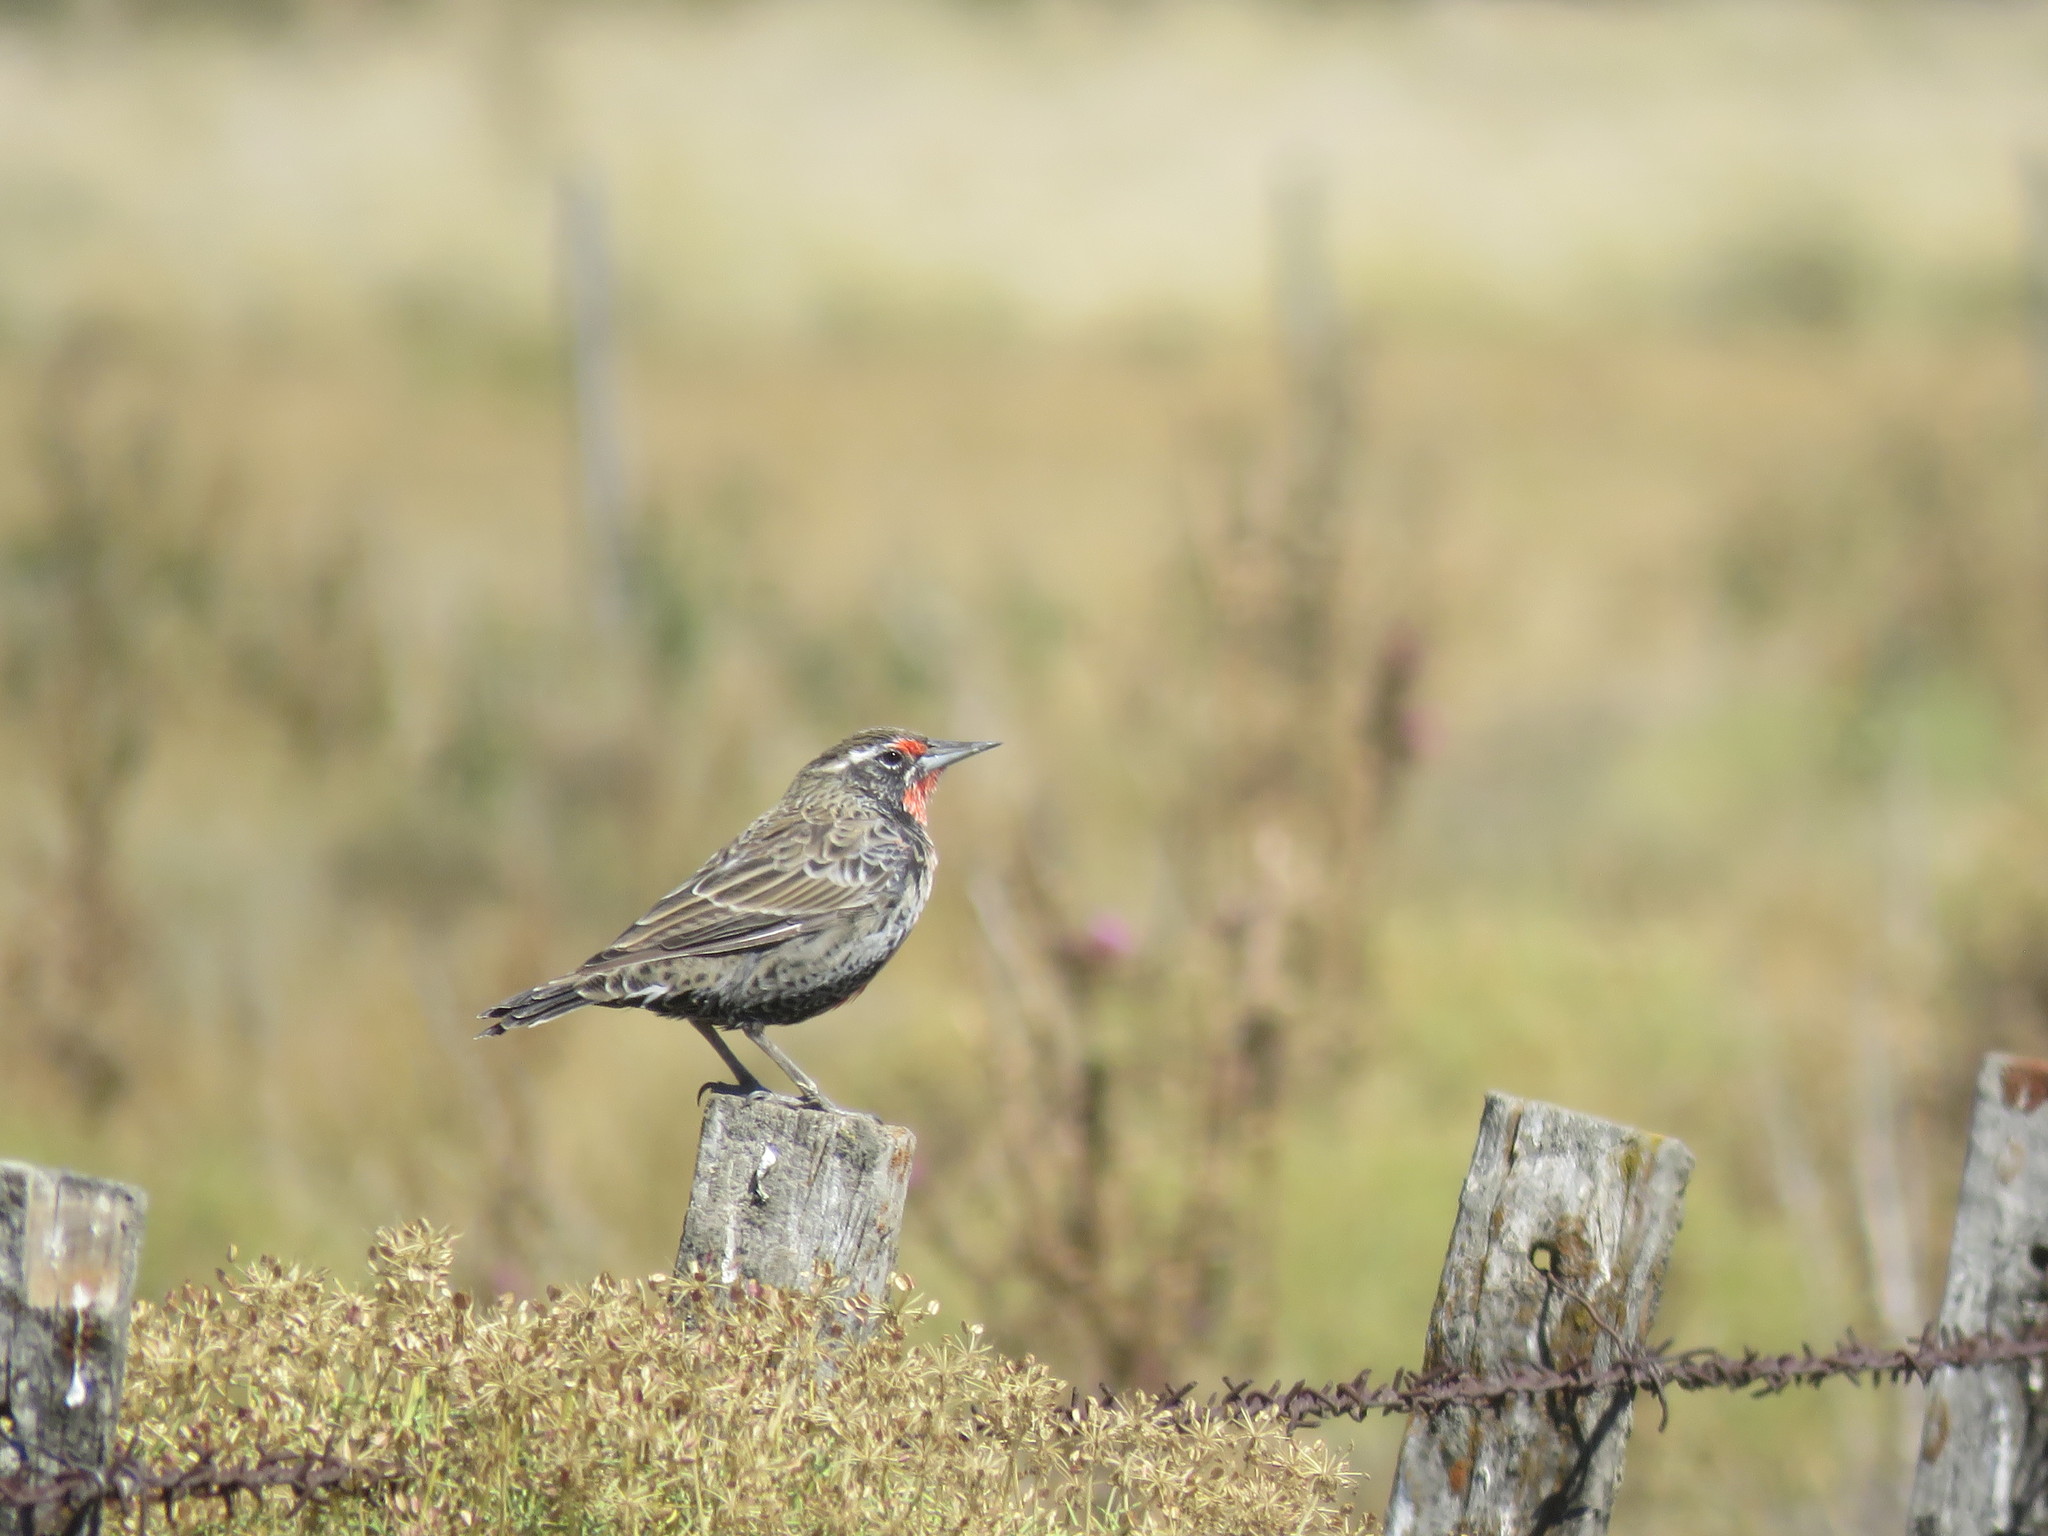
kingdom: Animalia
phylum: Chordata
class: Aves
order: Passeriformes
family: Icteridae
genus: Sturnella
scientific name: Sturnella loyca
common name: Long-tailed meadowlark
